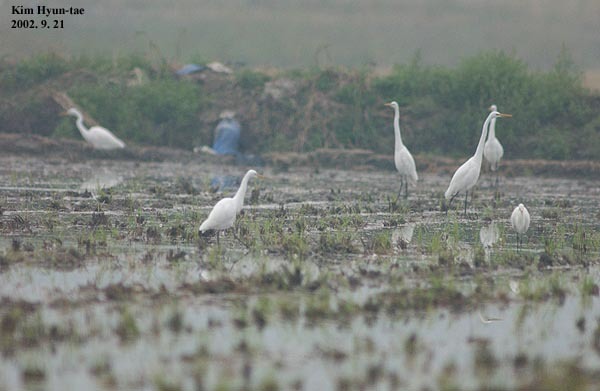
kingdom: Animalia
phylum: Chordata
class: Aves
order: Pelecaniformes
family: Ardeidae
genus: Ardea
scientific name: Ardea alba
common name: Great egret
